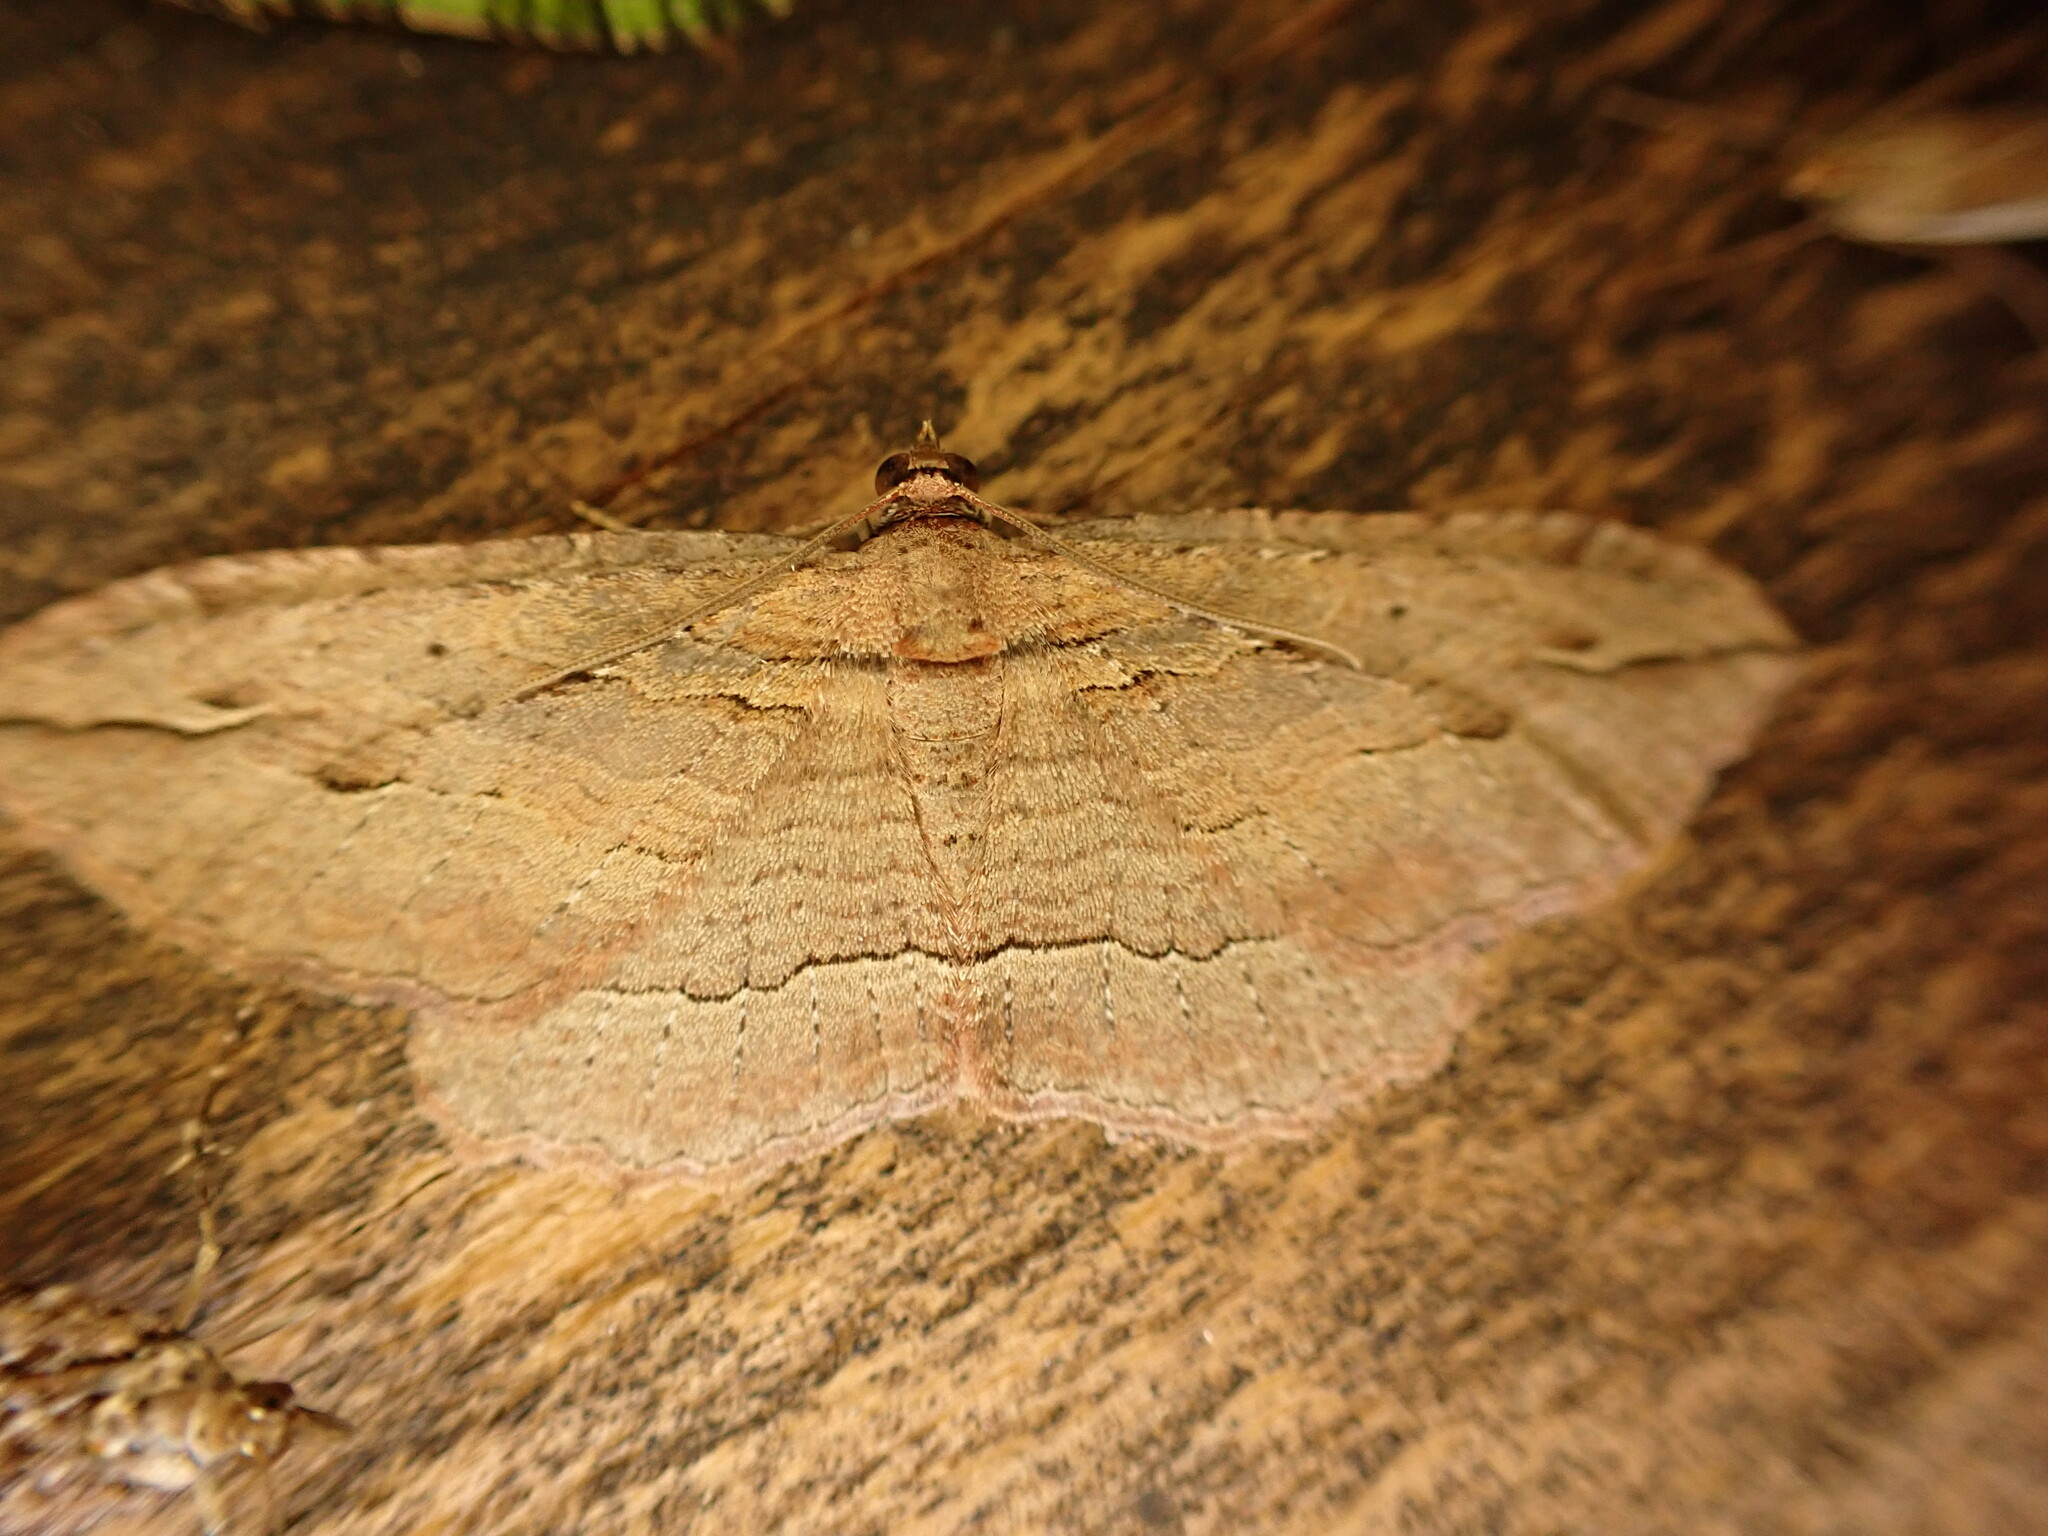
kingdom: Animalia
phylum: Arthropoda
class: Insecta
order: Lepidoptera
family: Geometridae
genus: Austrocidaria
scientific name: Austrocidaria gobiata
